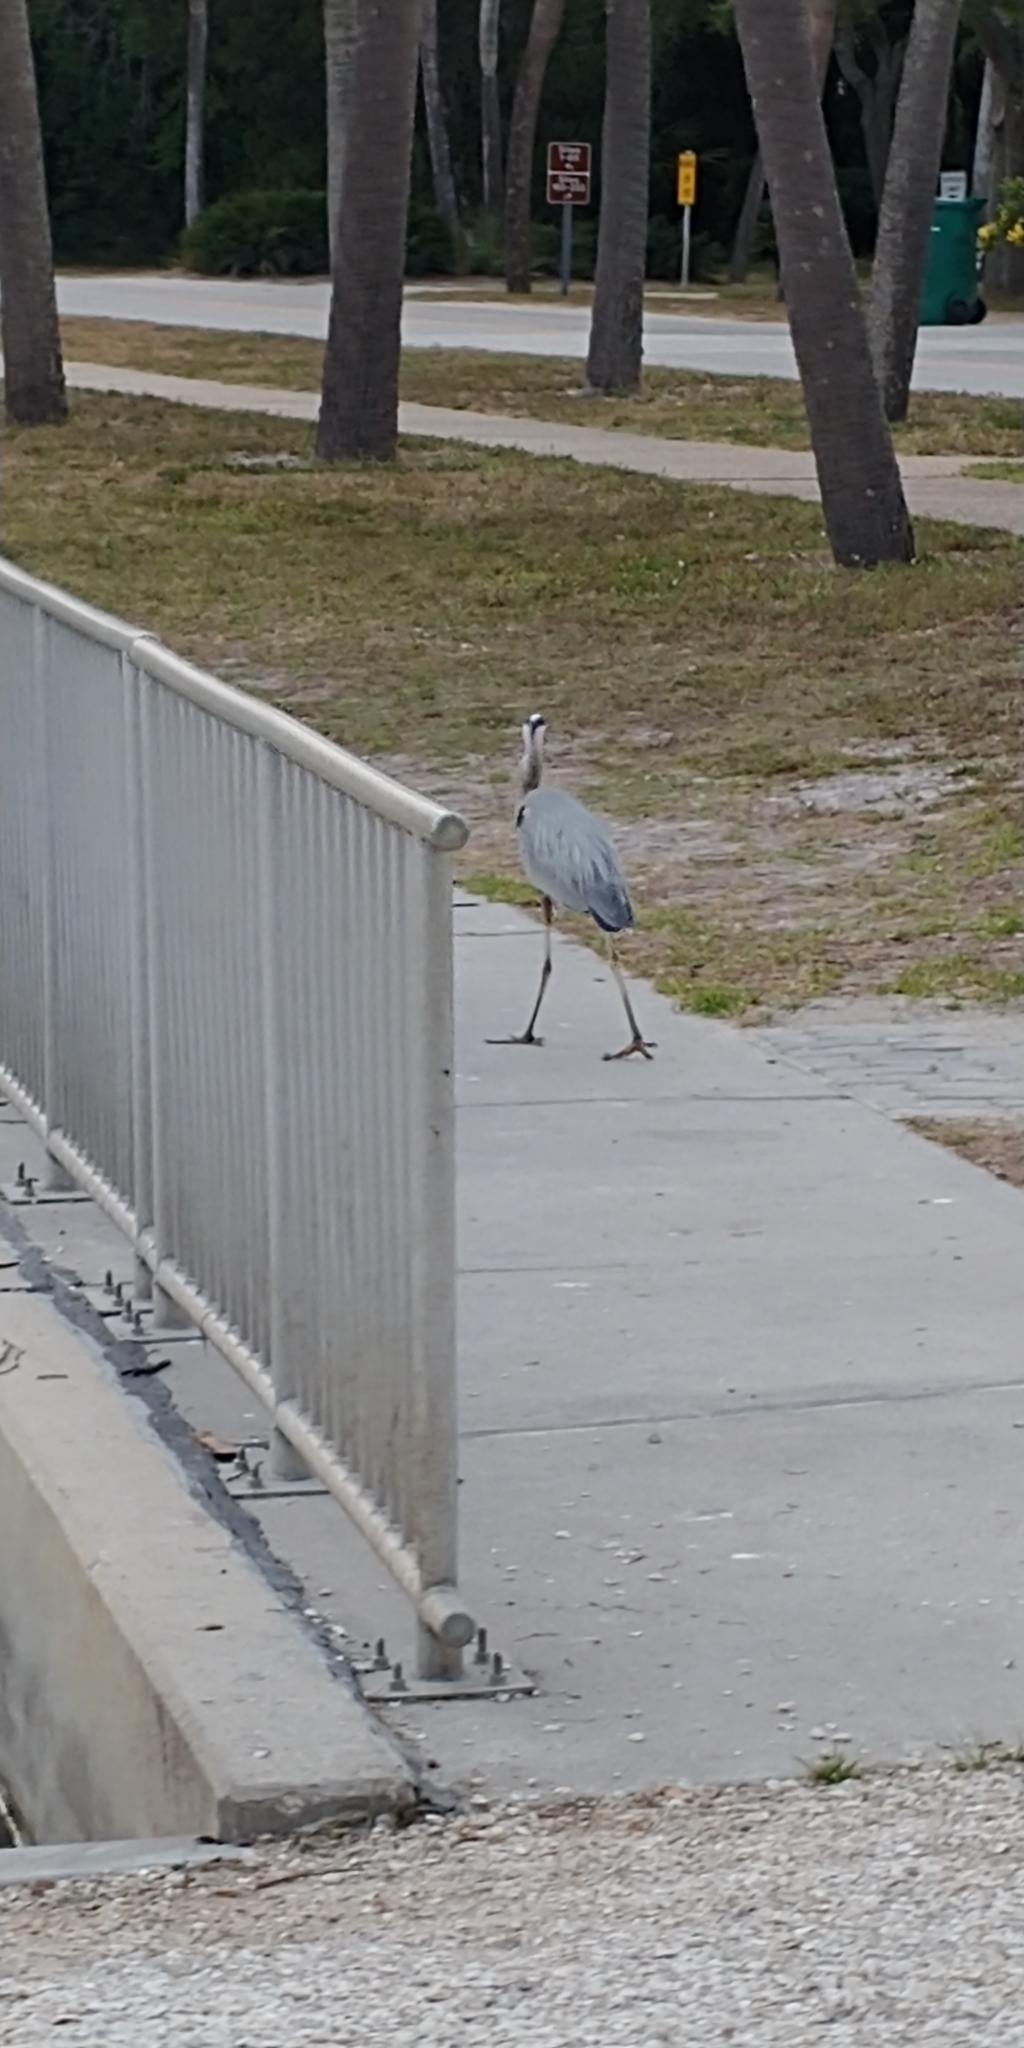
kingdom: Animalia
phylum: Chordata
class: Aves
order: Pelecaniformes
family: Ardeidae
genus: Ardea
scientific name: Ardea herodias
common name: Great blue heron
